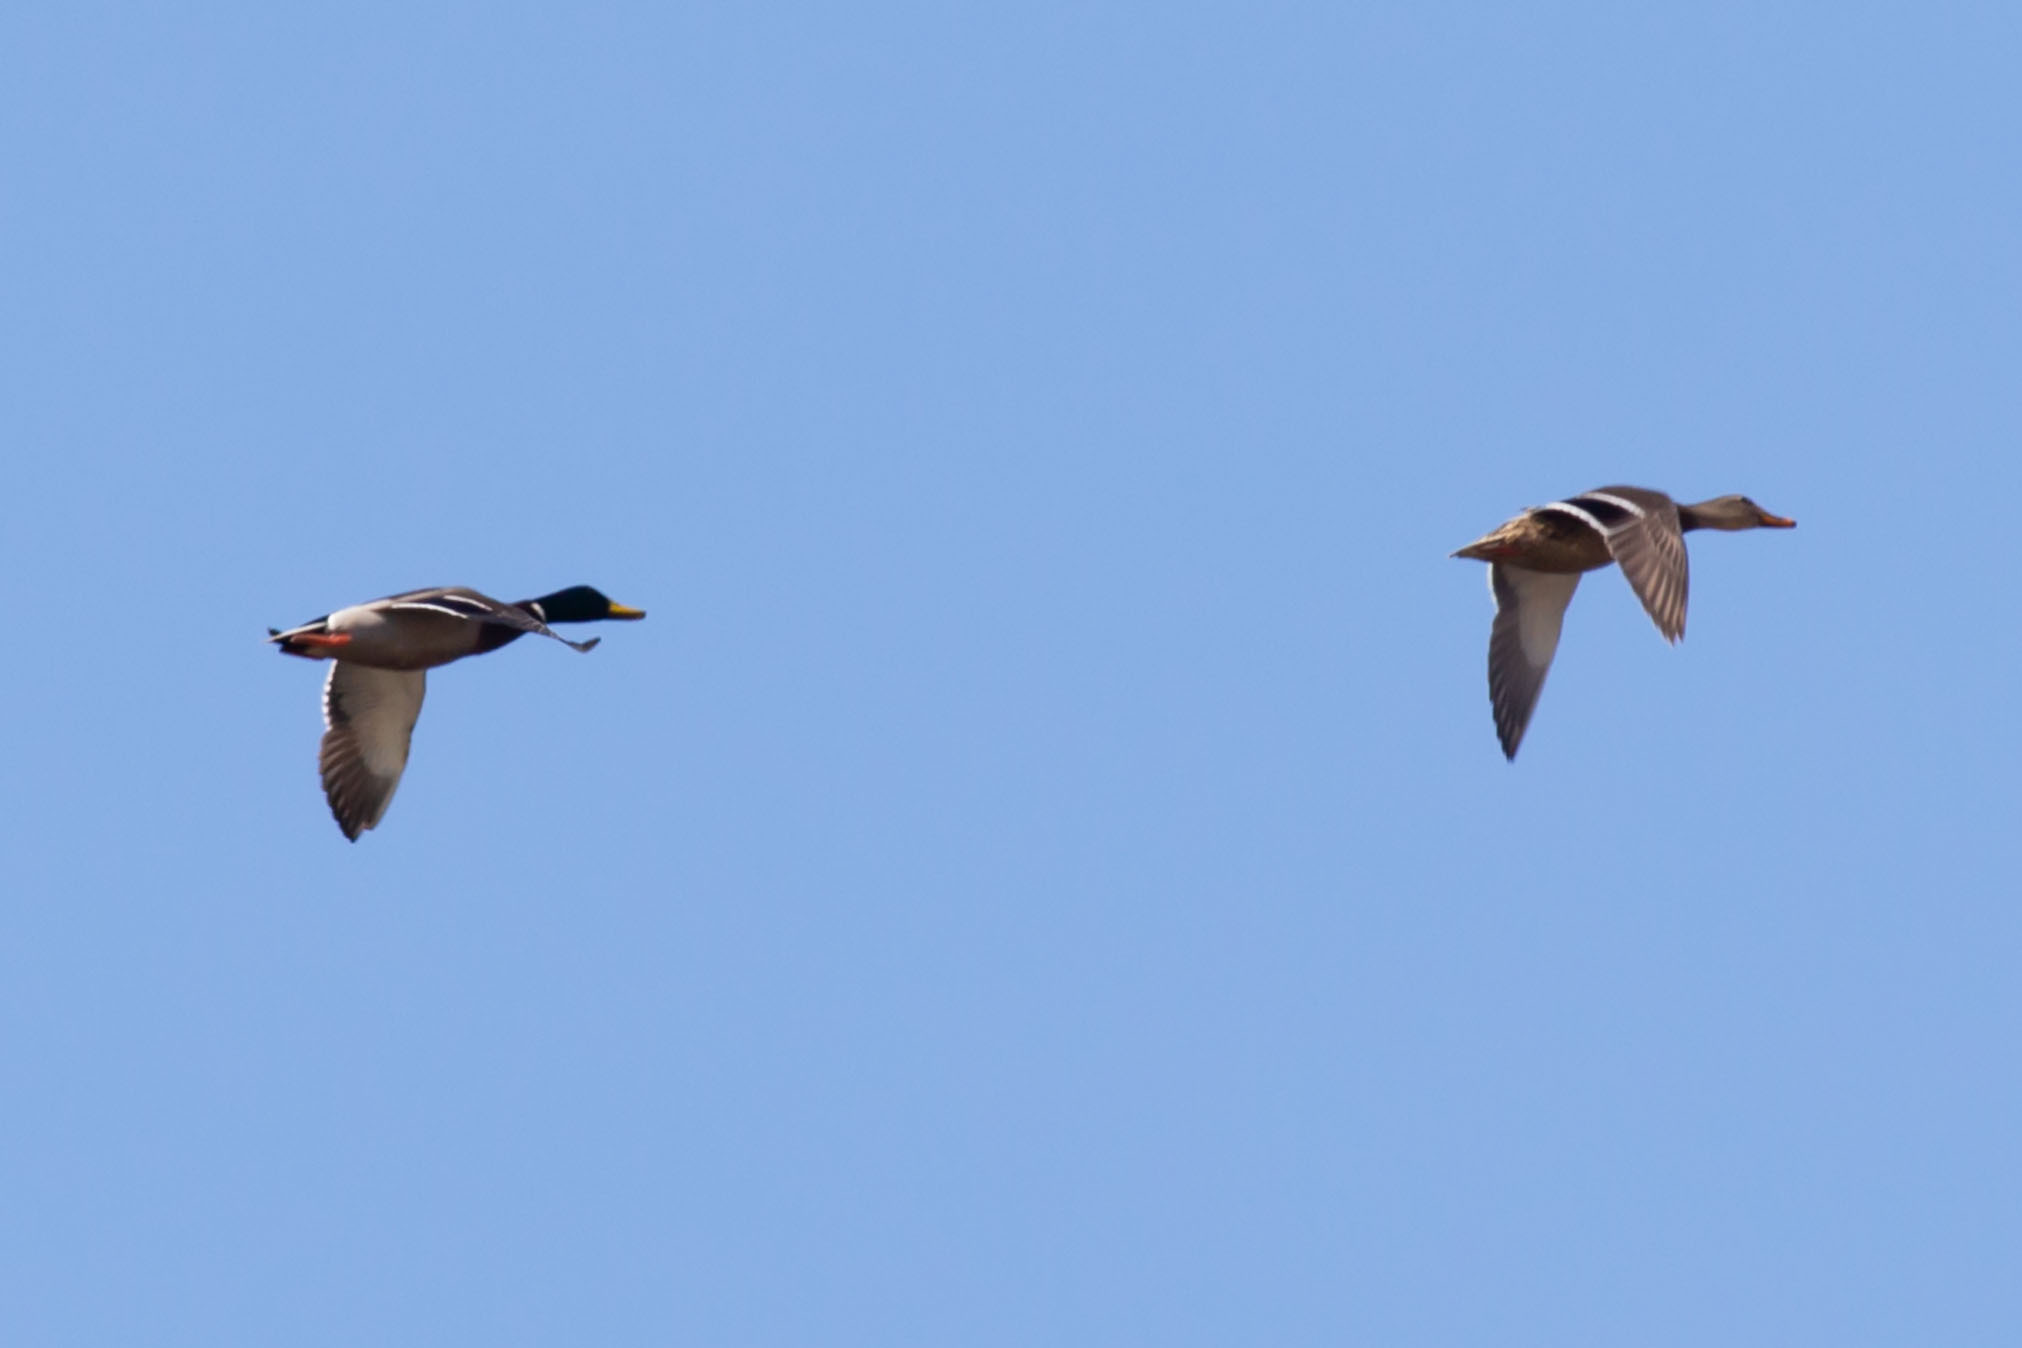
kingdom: Animalia
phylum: Chordata
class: Aves
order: Anseriformes
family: Anatidae
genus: Anas
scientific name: Anas platyrhynchos
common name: Mallard
